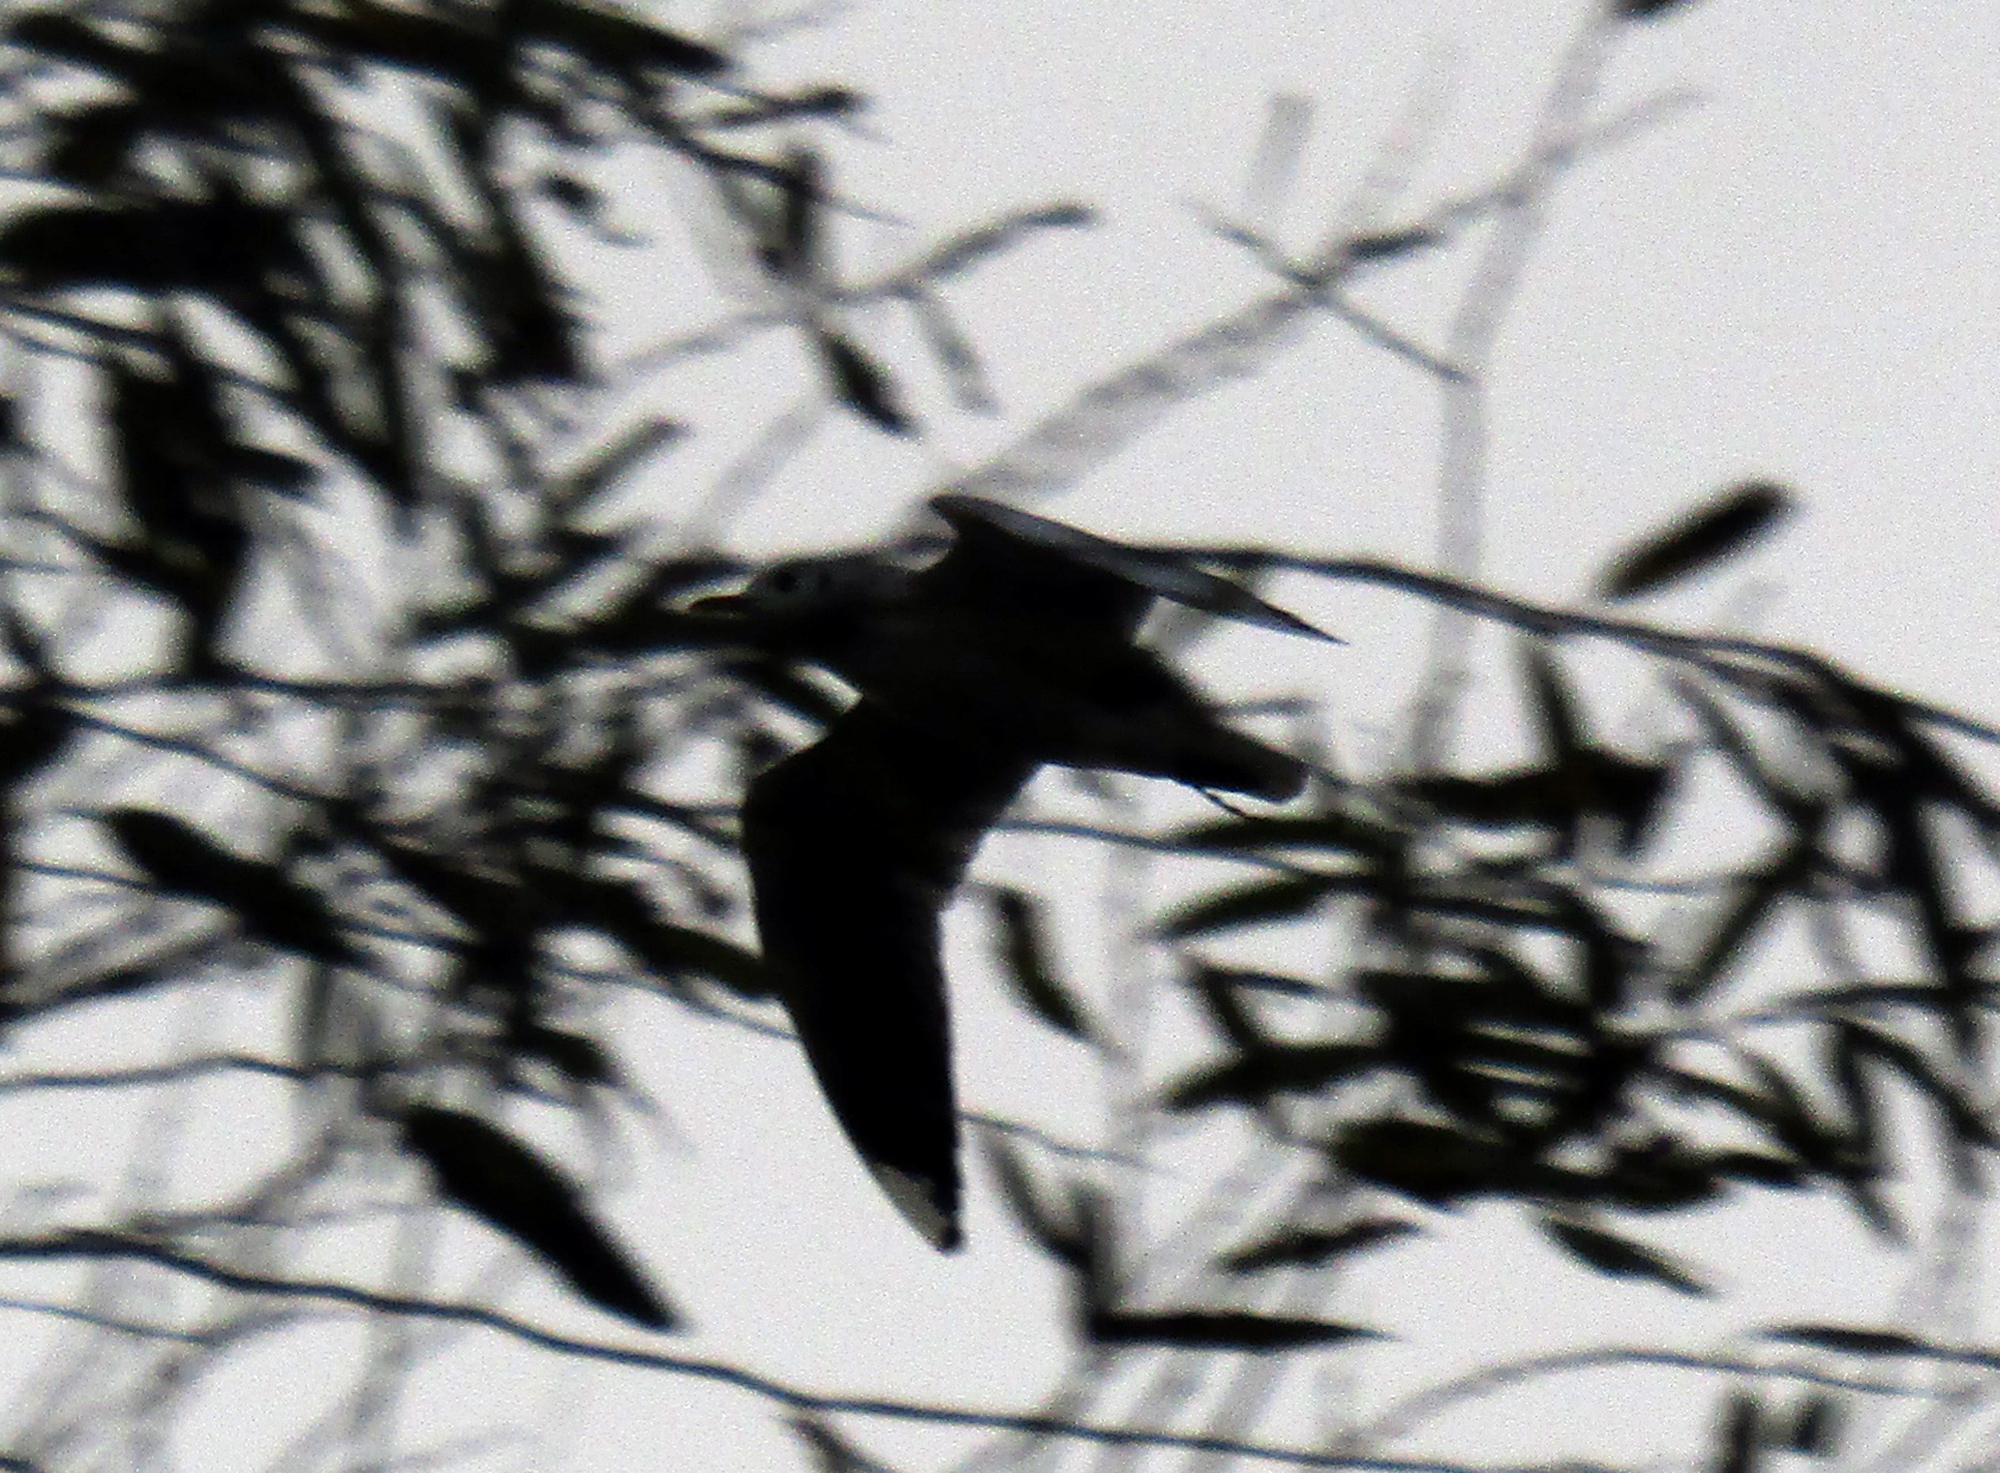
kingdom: Animalia
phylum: Chordata
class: Aves
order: Charadriiformes
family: Laridae
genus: Chroicocephalus
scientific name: Chroicocephalus maculipennis
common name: Brown-hooded gull
